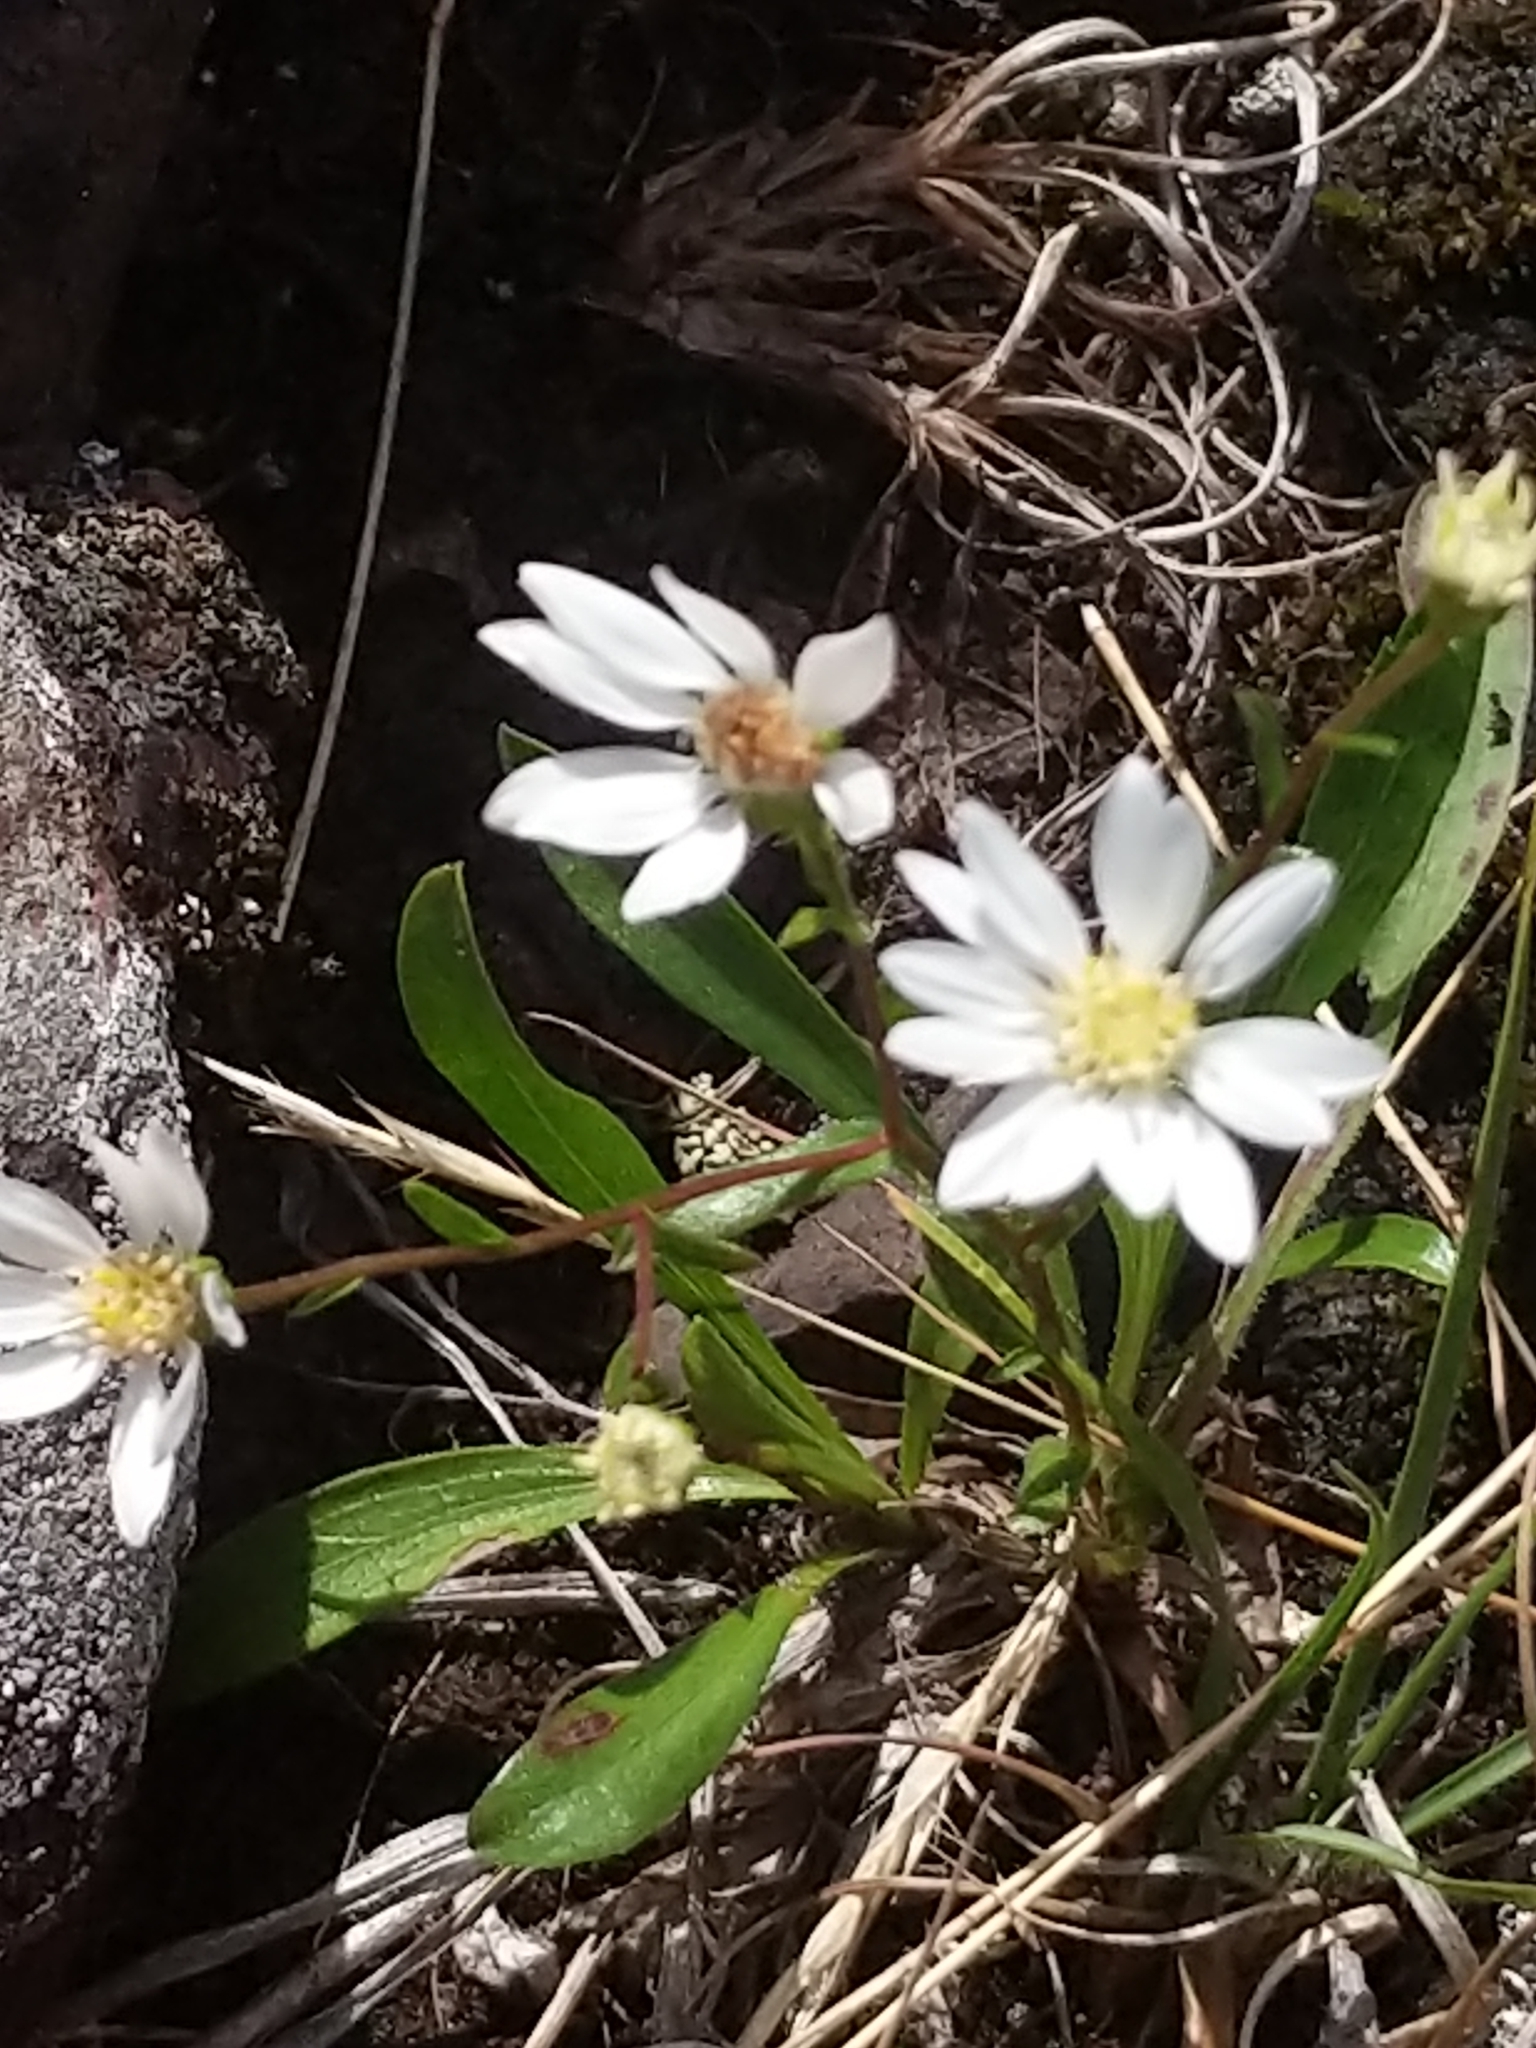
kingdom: Plantae
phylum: Tracheophyta
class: Magnoliopsida
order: Asterales
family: Asteraceae
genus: Solidago
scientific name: Solidago ptarmicoides
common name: White flat-top goldenrod
